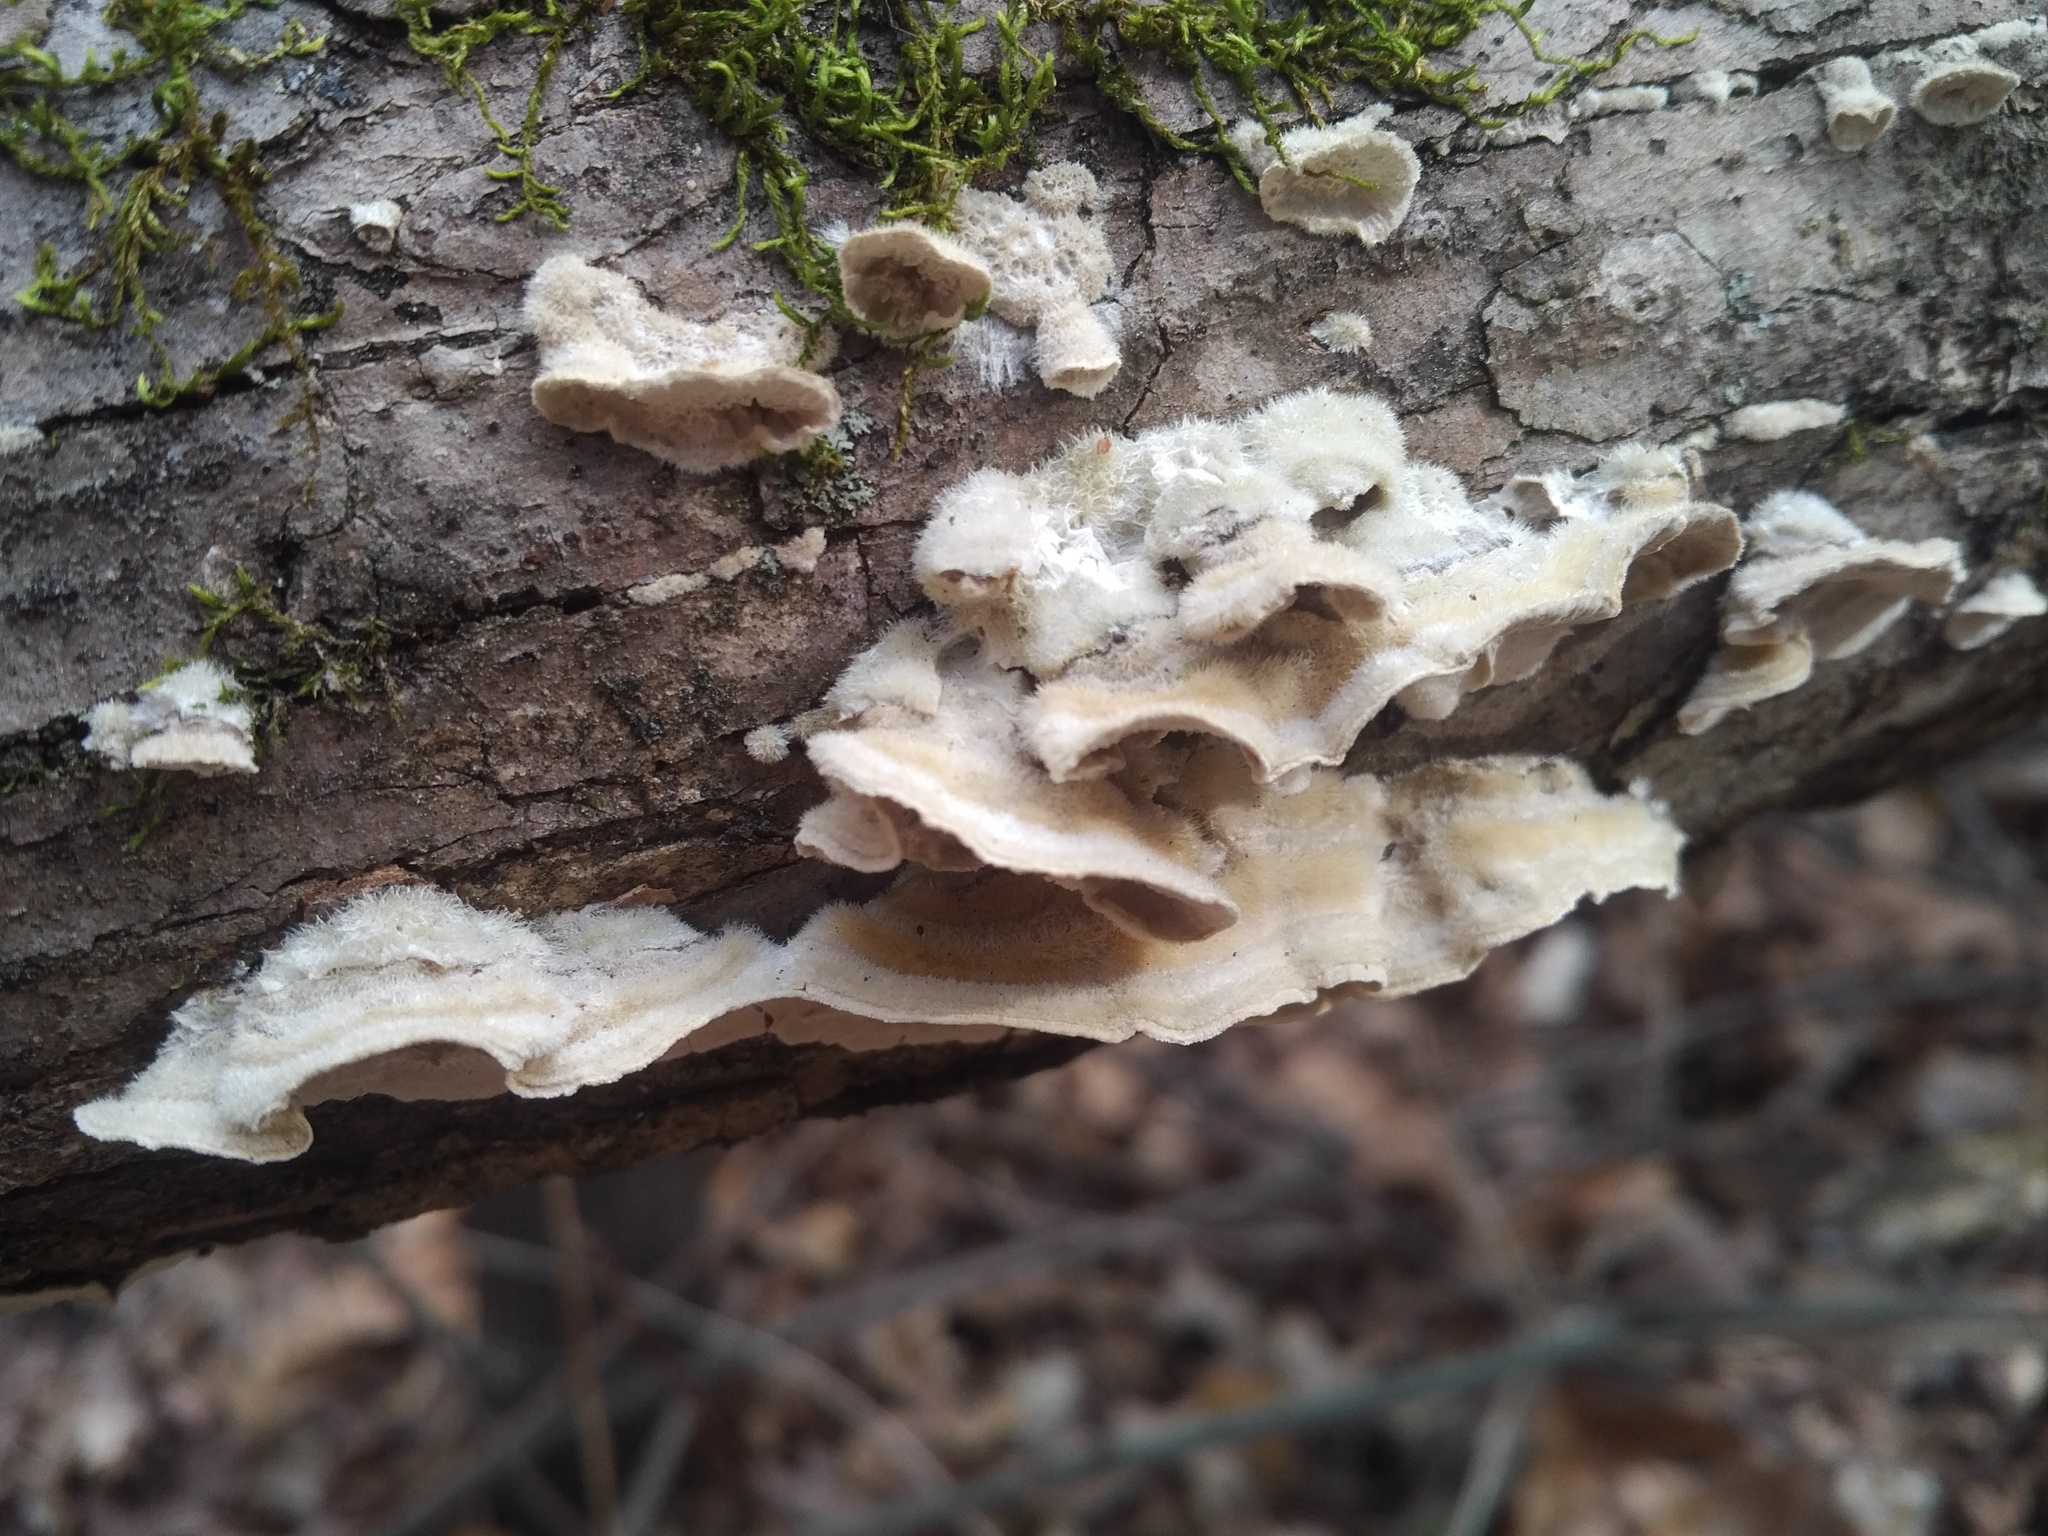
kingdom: Fungi
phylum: Basidiomycota
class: Agaricomycetes
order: Polyporales
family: Cerrenaceae
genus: Cerrena
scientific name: Cerrena unicolor
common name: Mossy maze polypore
